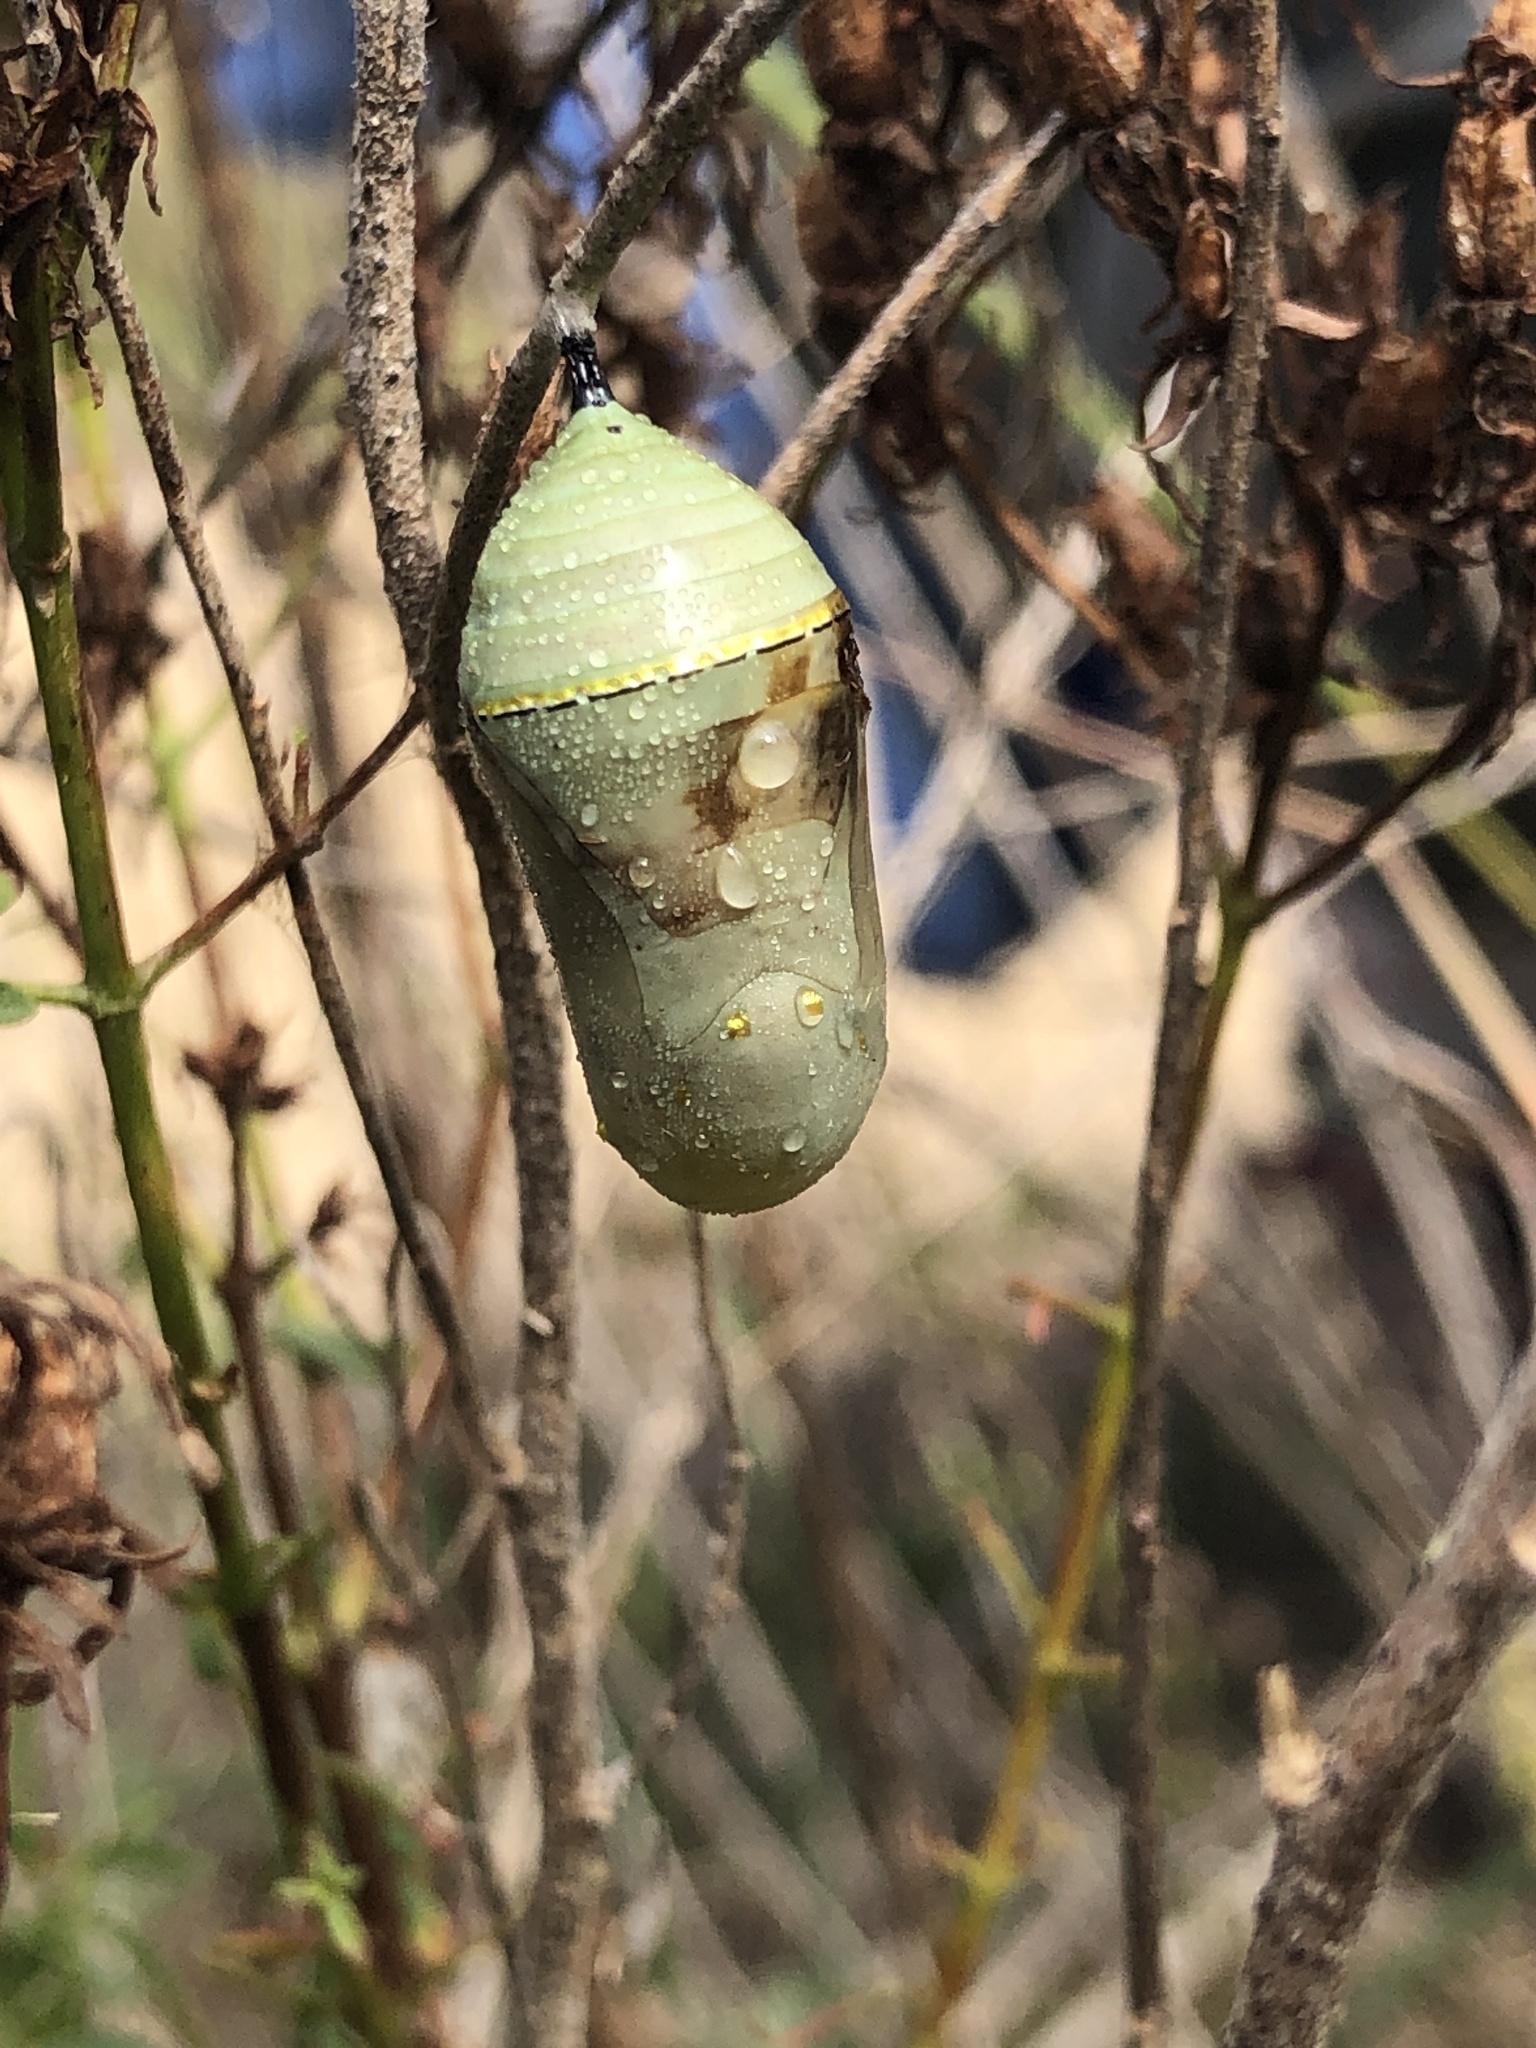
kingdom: Animalia
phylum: Arthropoda
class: Insecta
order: Lepidoptera
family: Nymphalidae
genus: Danaus
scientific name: Danaus plexippus
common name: Monarch
